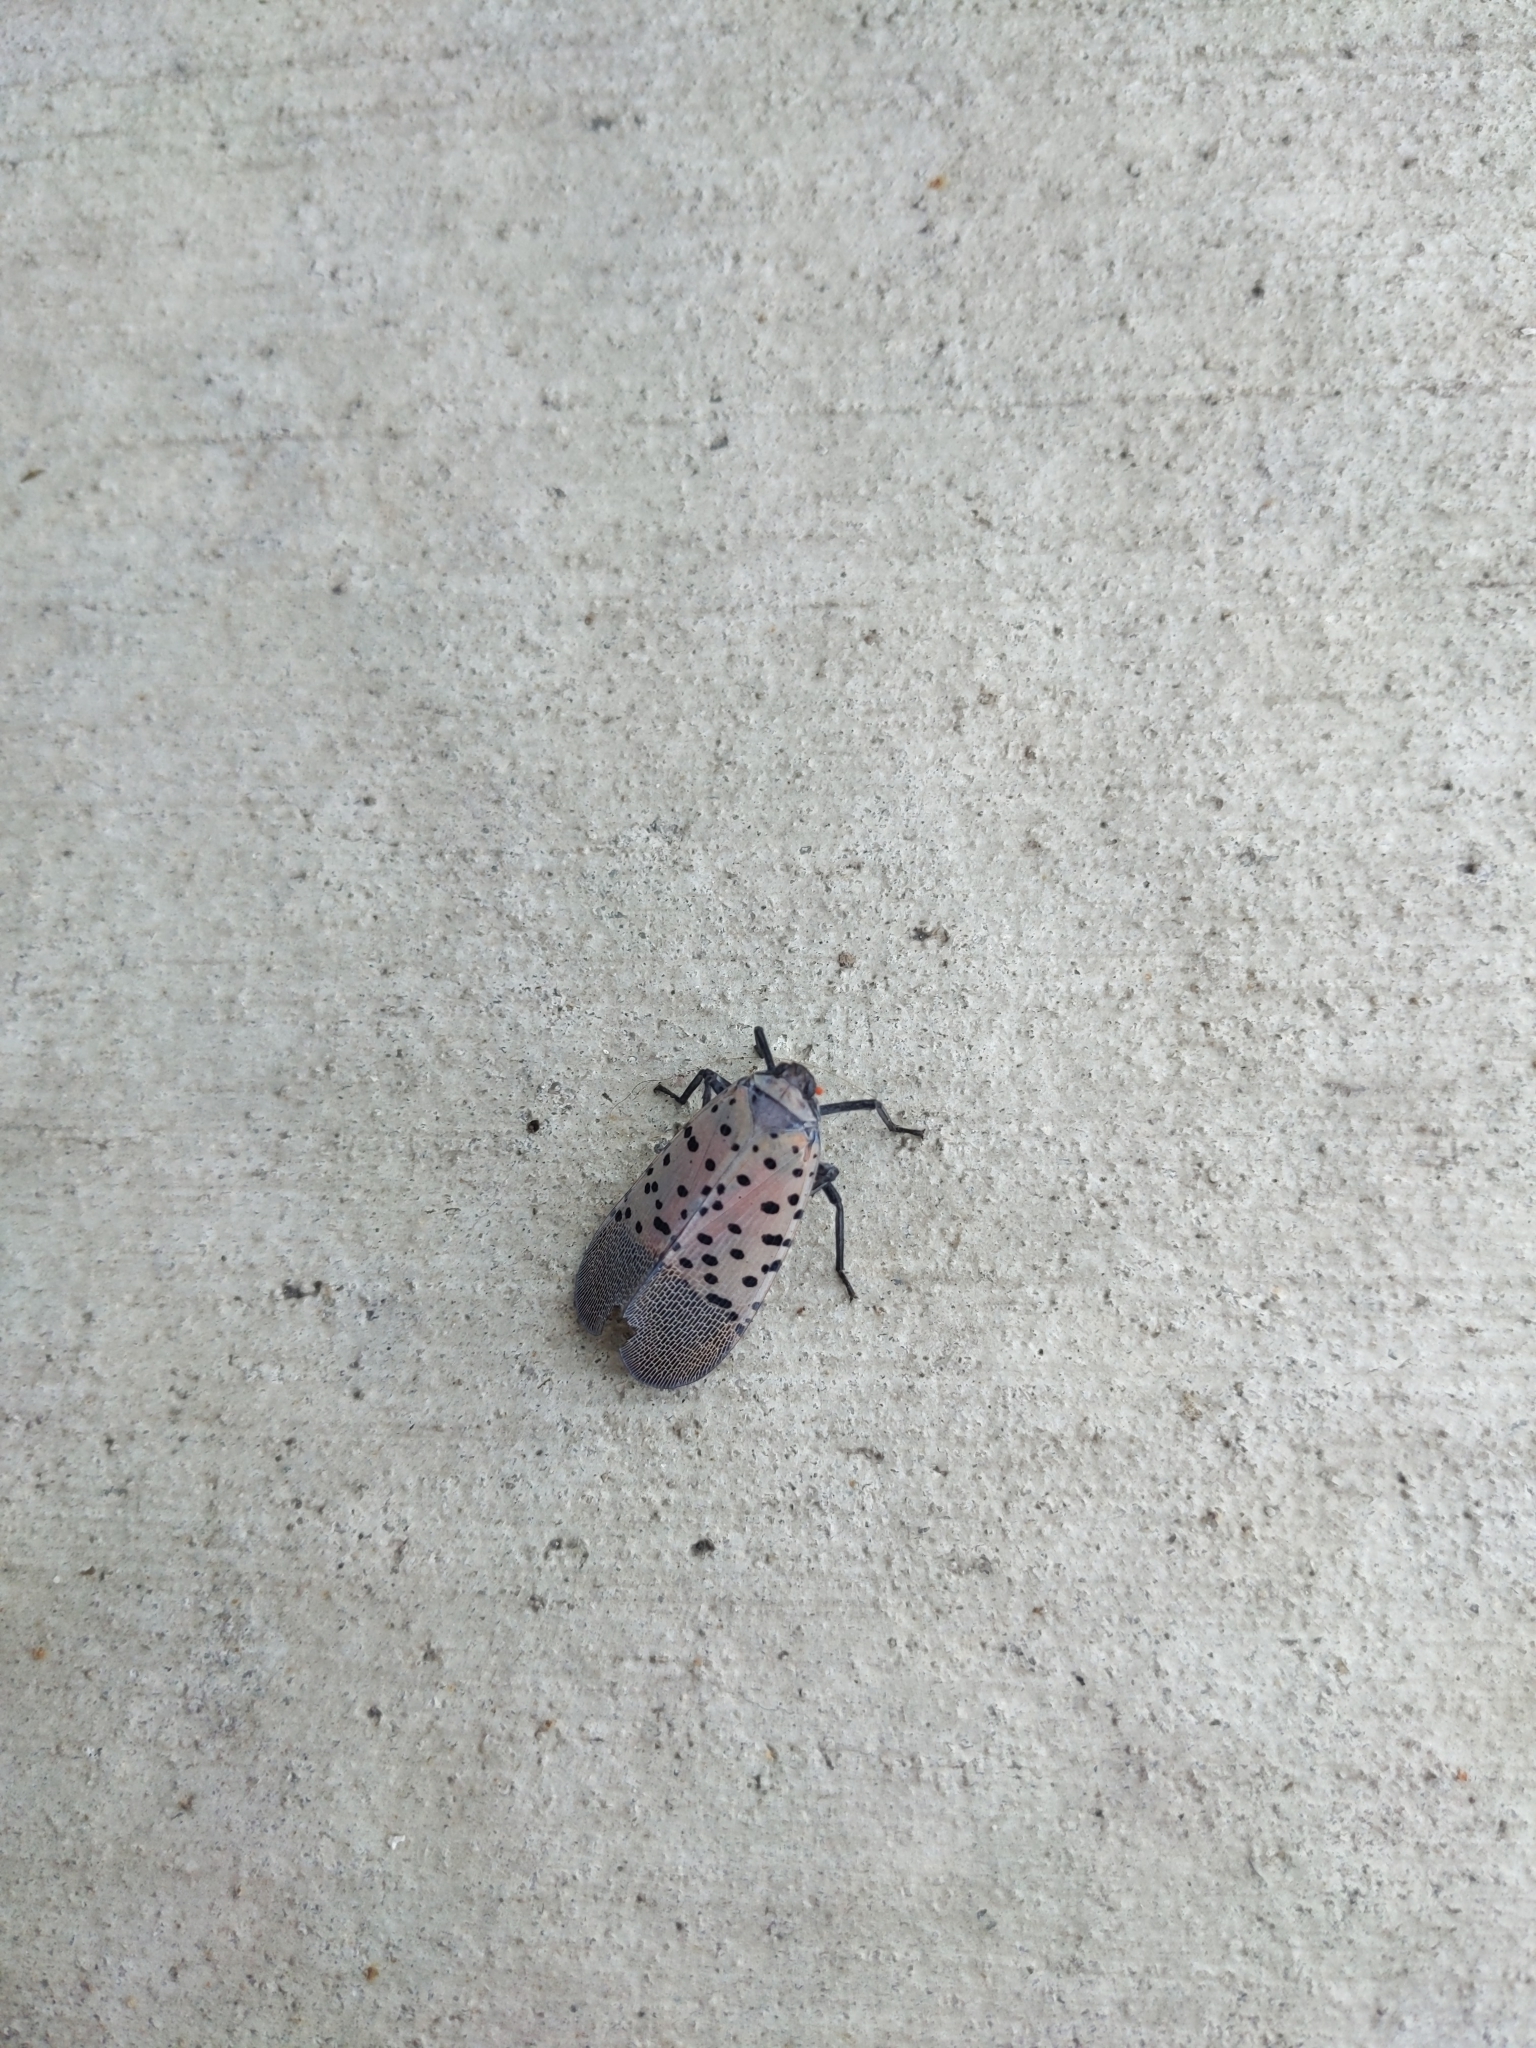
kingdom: Animalia
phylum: Arthropoda
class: Insecta
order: Hemiptera
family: Fulgoridae
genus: Lycorma
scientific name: Lycorma delicatula
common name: Spotted lanternfly
